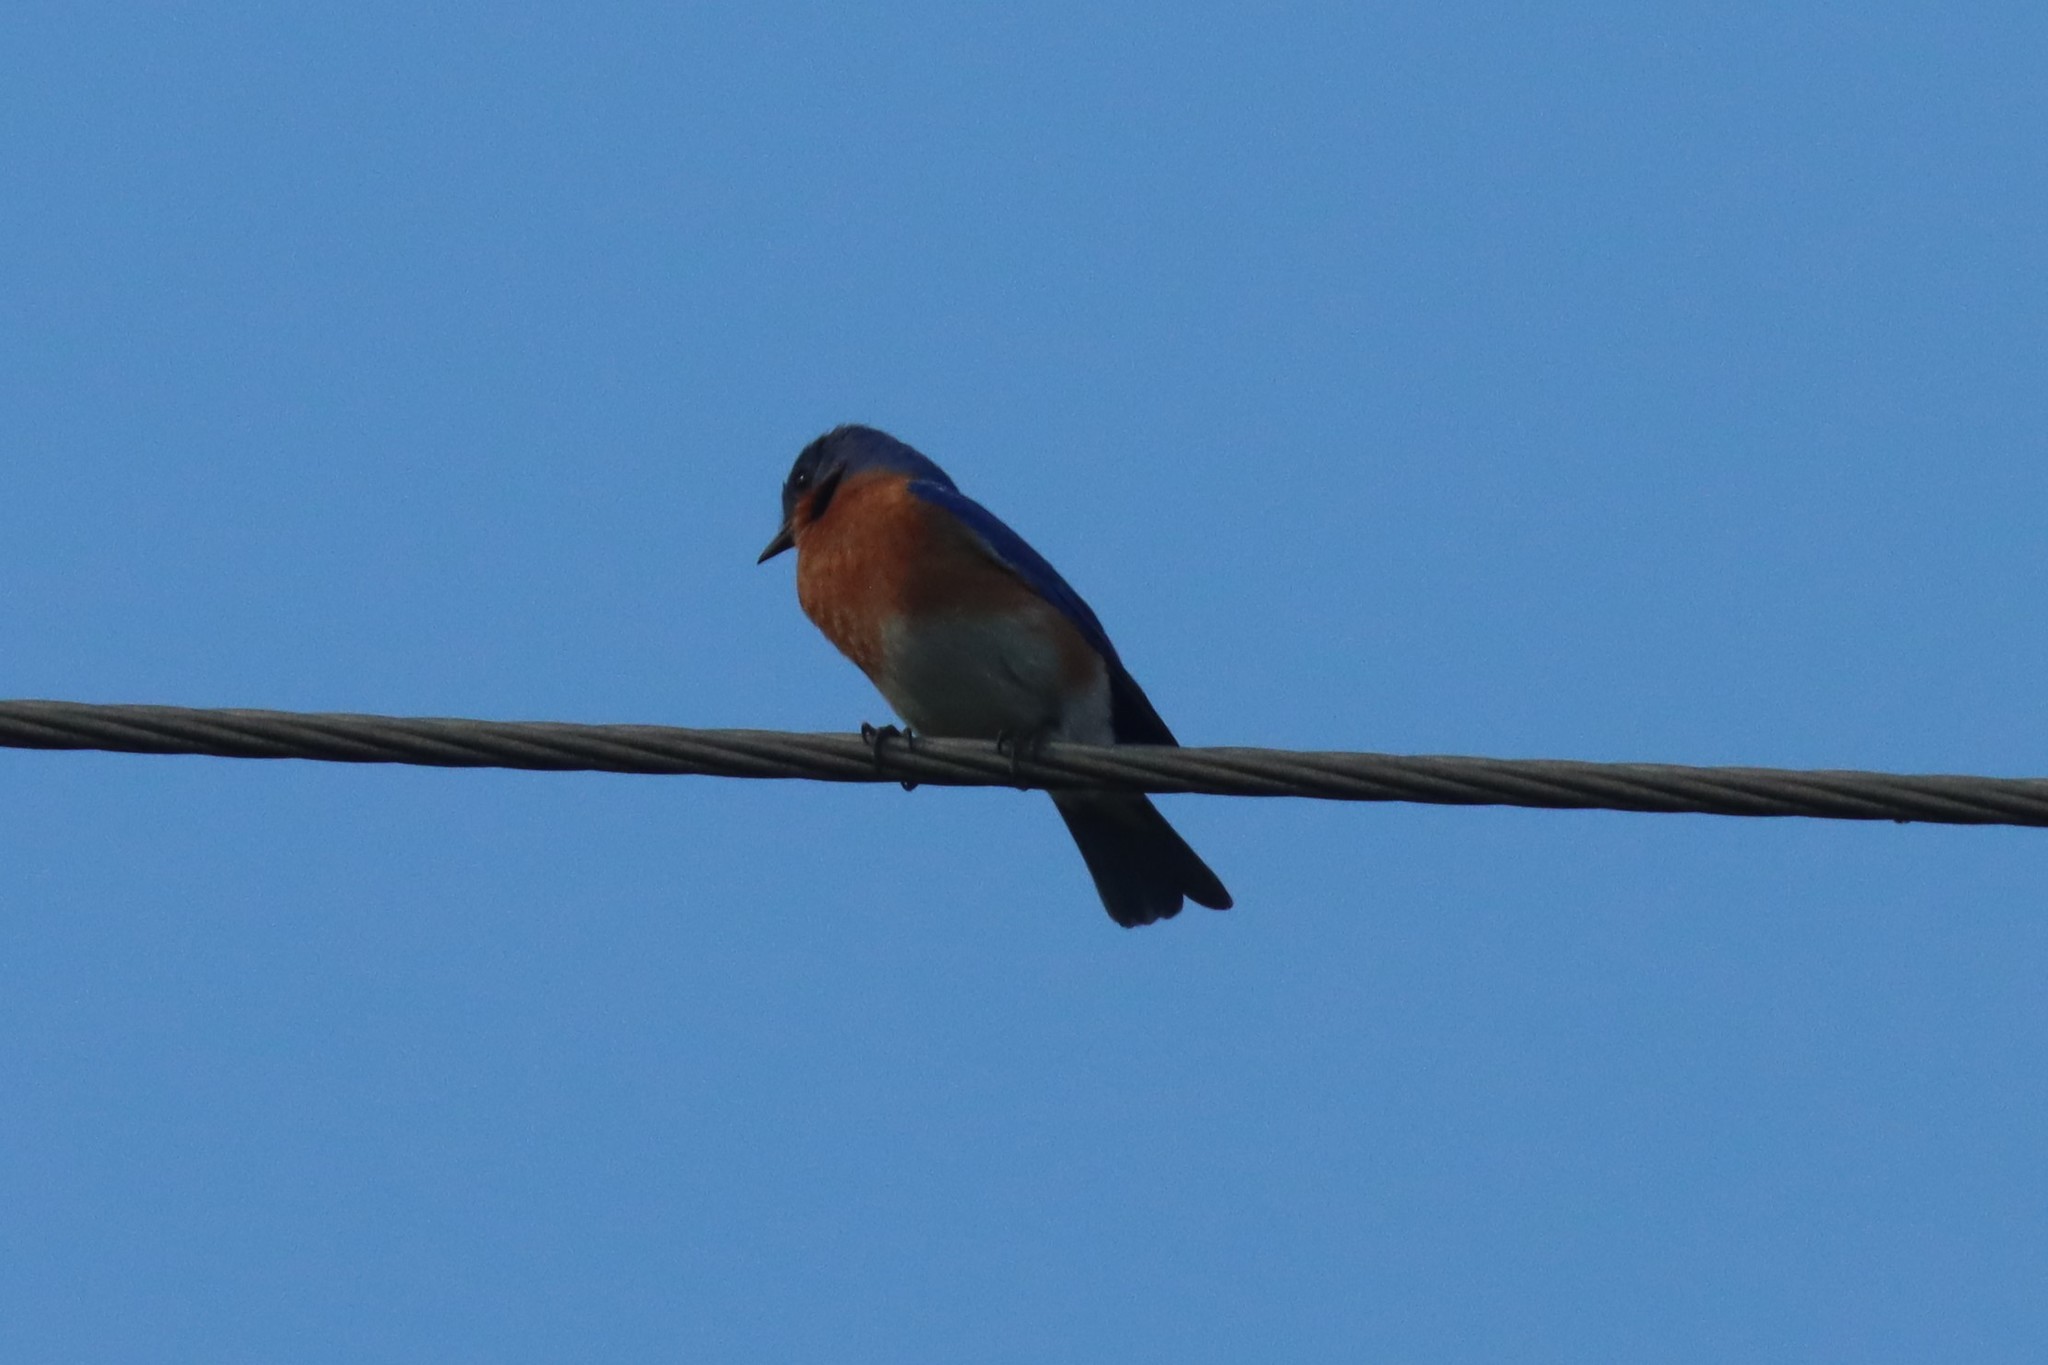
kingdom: Animalia
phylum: Chordata
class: Aves
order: Passeriformes
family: Turdidae
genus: Sialia
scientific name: Sialia sialis
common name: Eastern bluebird
